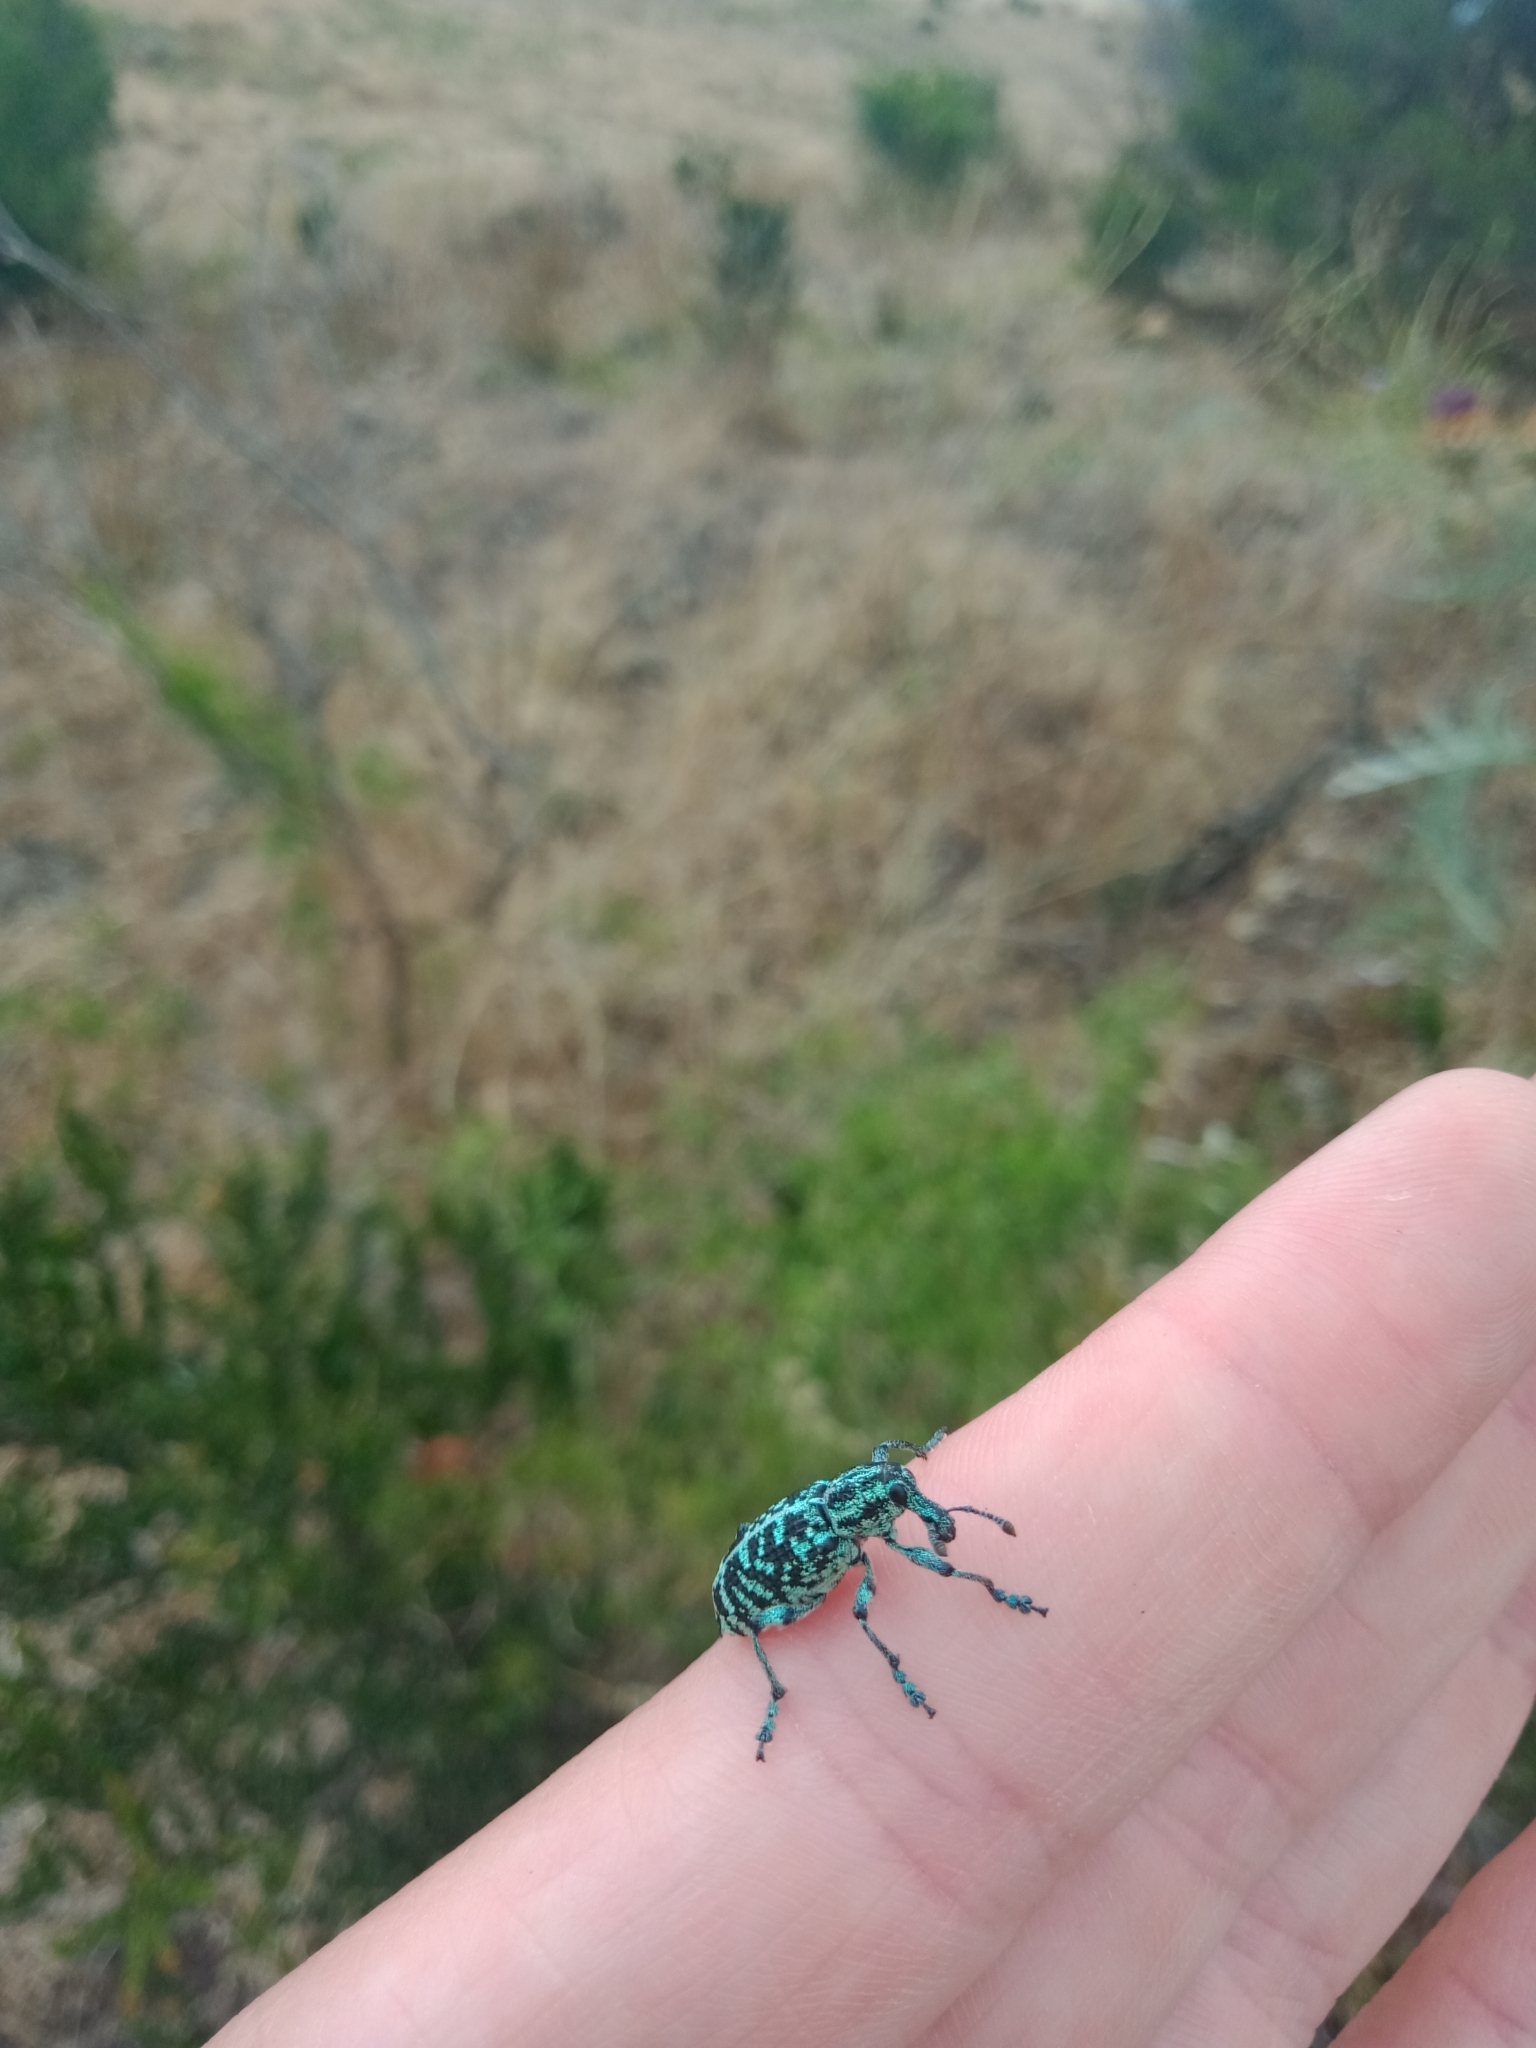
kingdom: Animalia
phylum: Arthropoda
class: Insecta
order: Coleoptera
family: Curculionidae
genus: Chrysolopus
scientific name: Chrysolopus spectabilis
